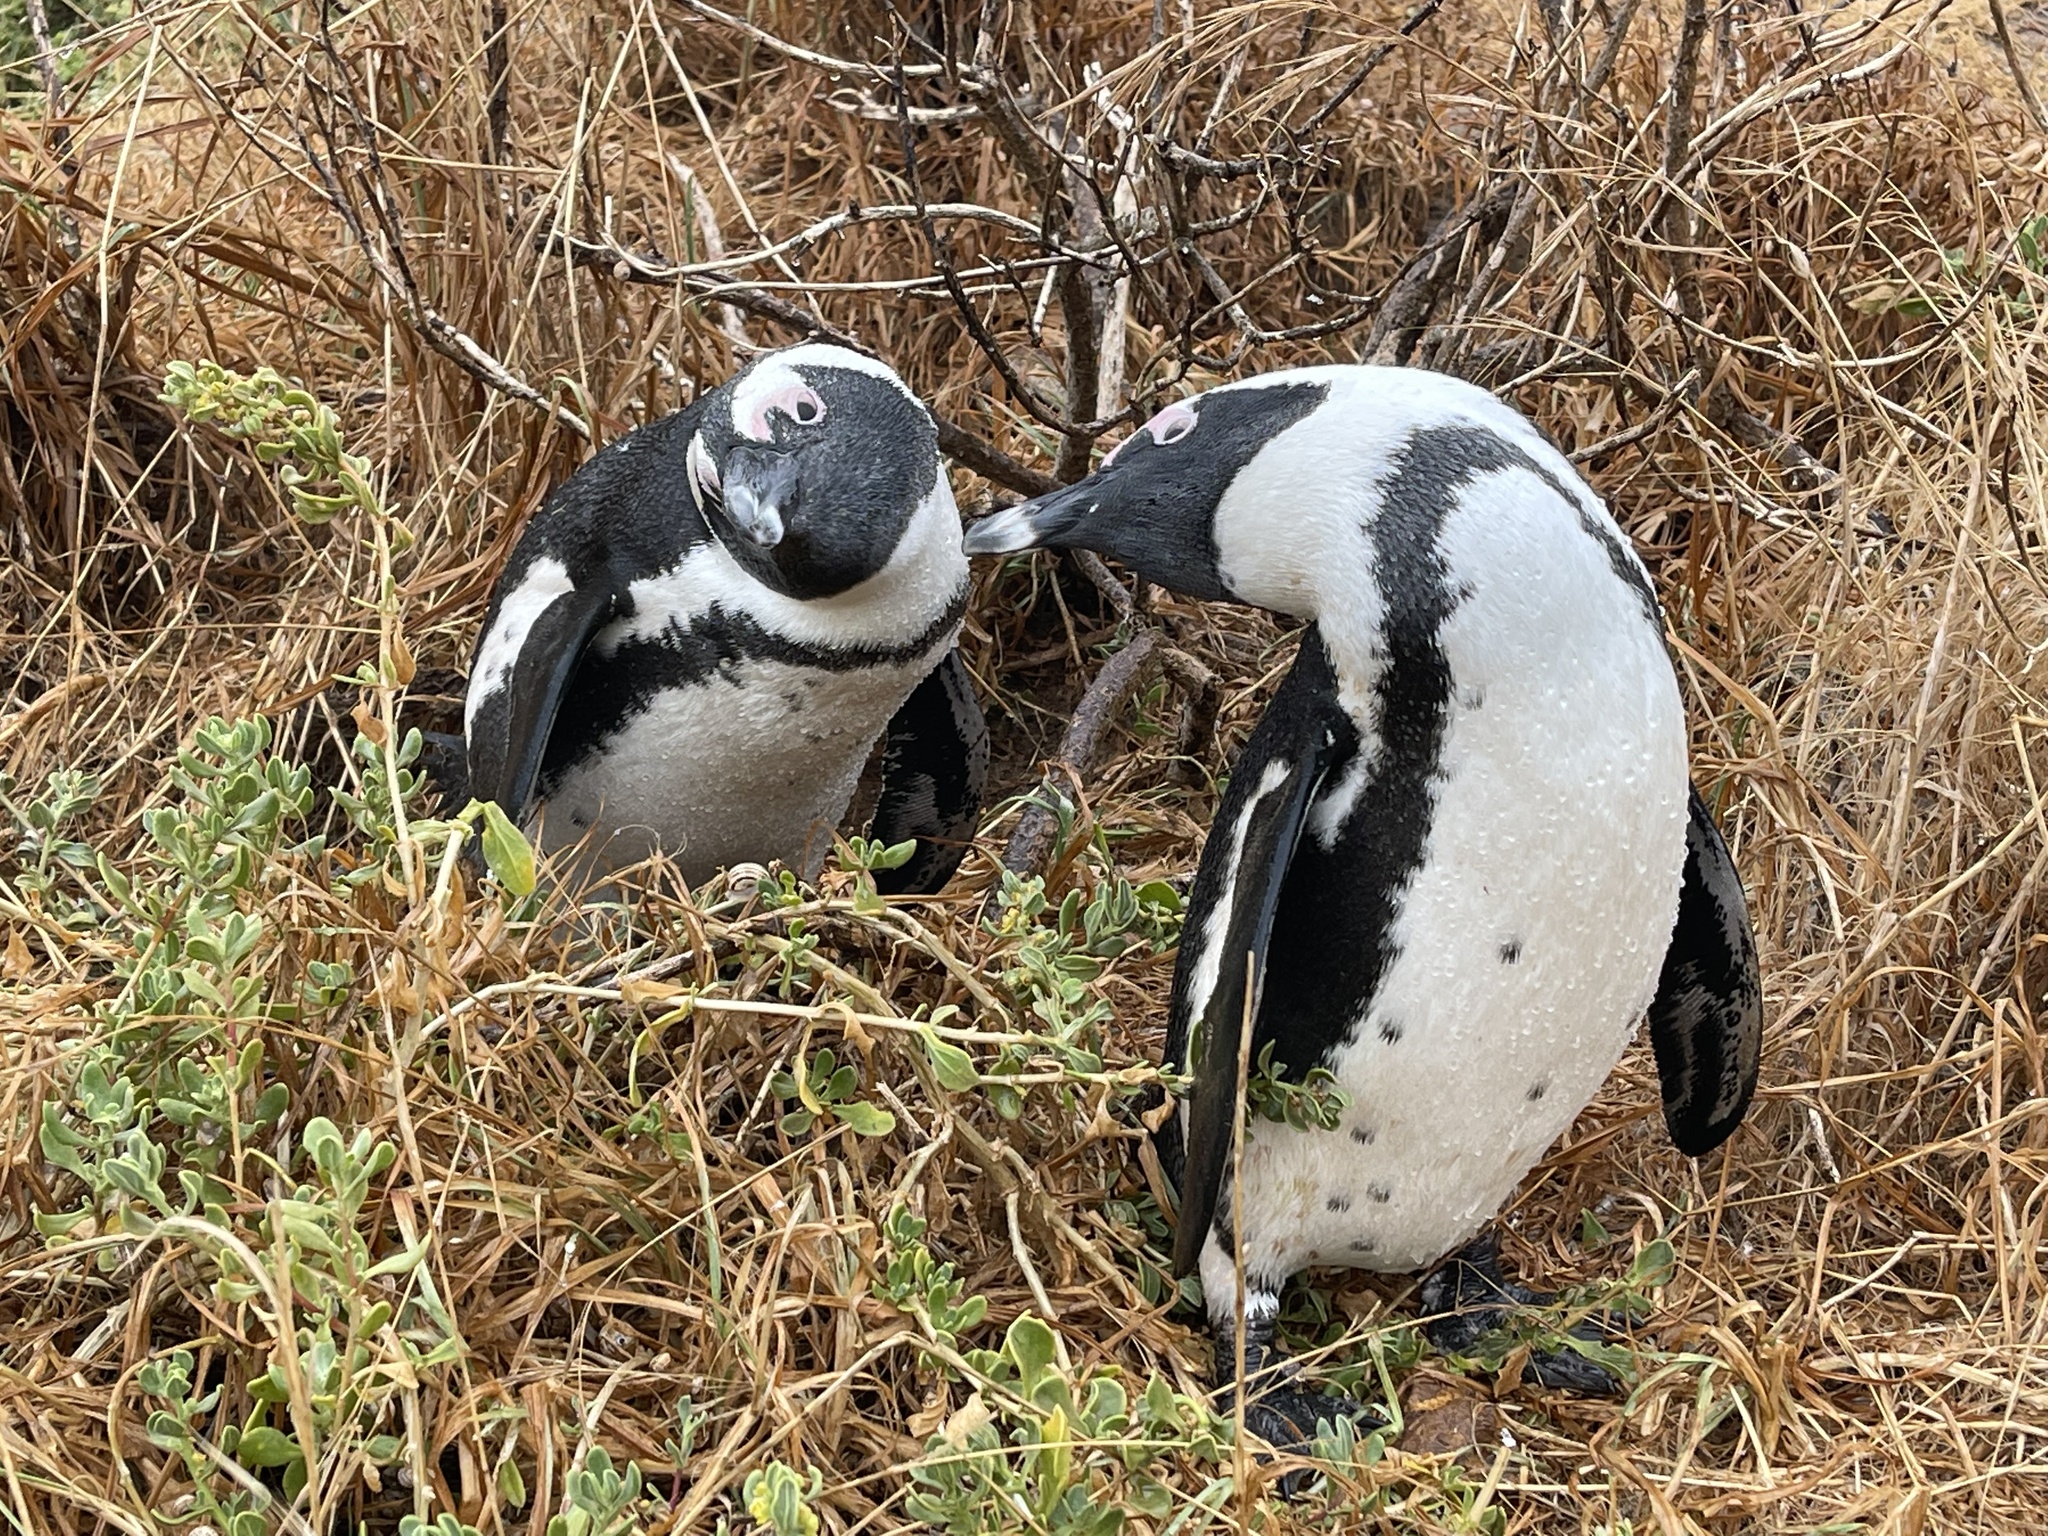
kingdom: Animalia
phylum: Chordata
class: Aves
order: Sphenisciformes
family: Spheniscidae
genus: Spheniscus
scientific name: Spheniscus demersus
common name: African penguin
